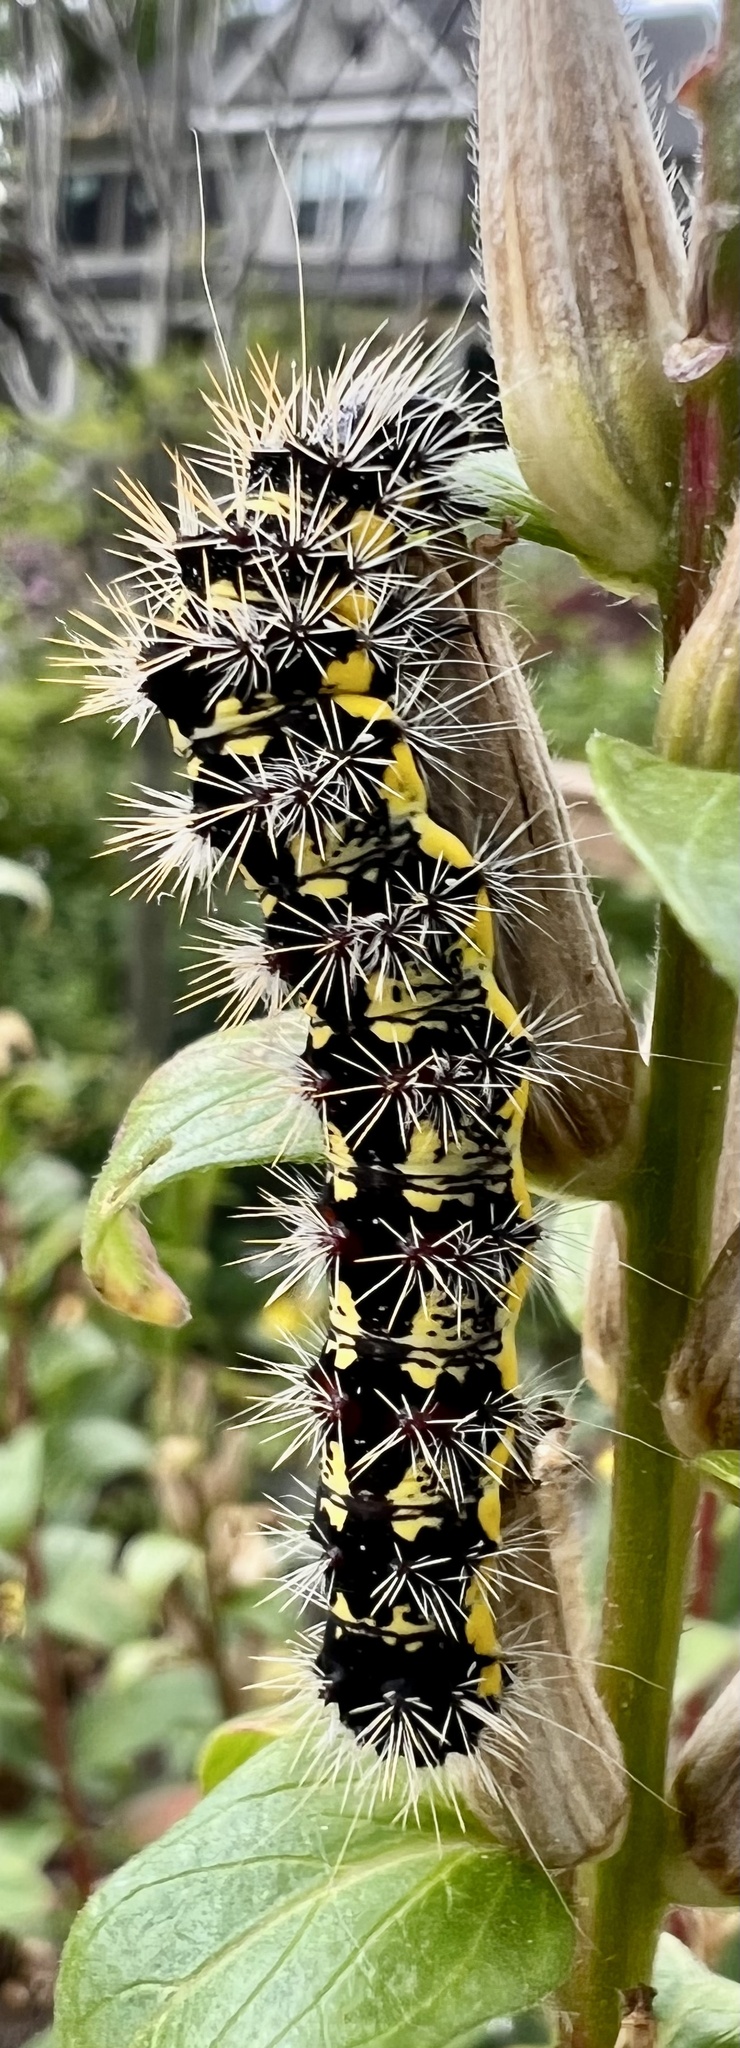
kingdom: Animalia
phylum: Arthropoda
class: Insecta
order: Lepidoptera
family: Noctuidae
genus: Acronicta
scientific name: Acronicta oblinita
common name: Smeared dagger
